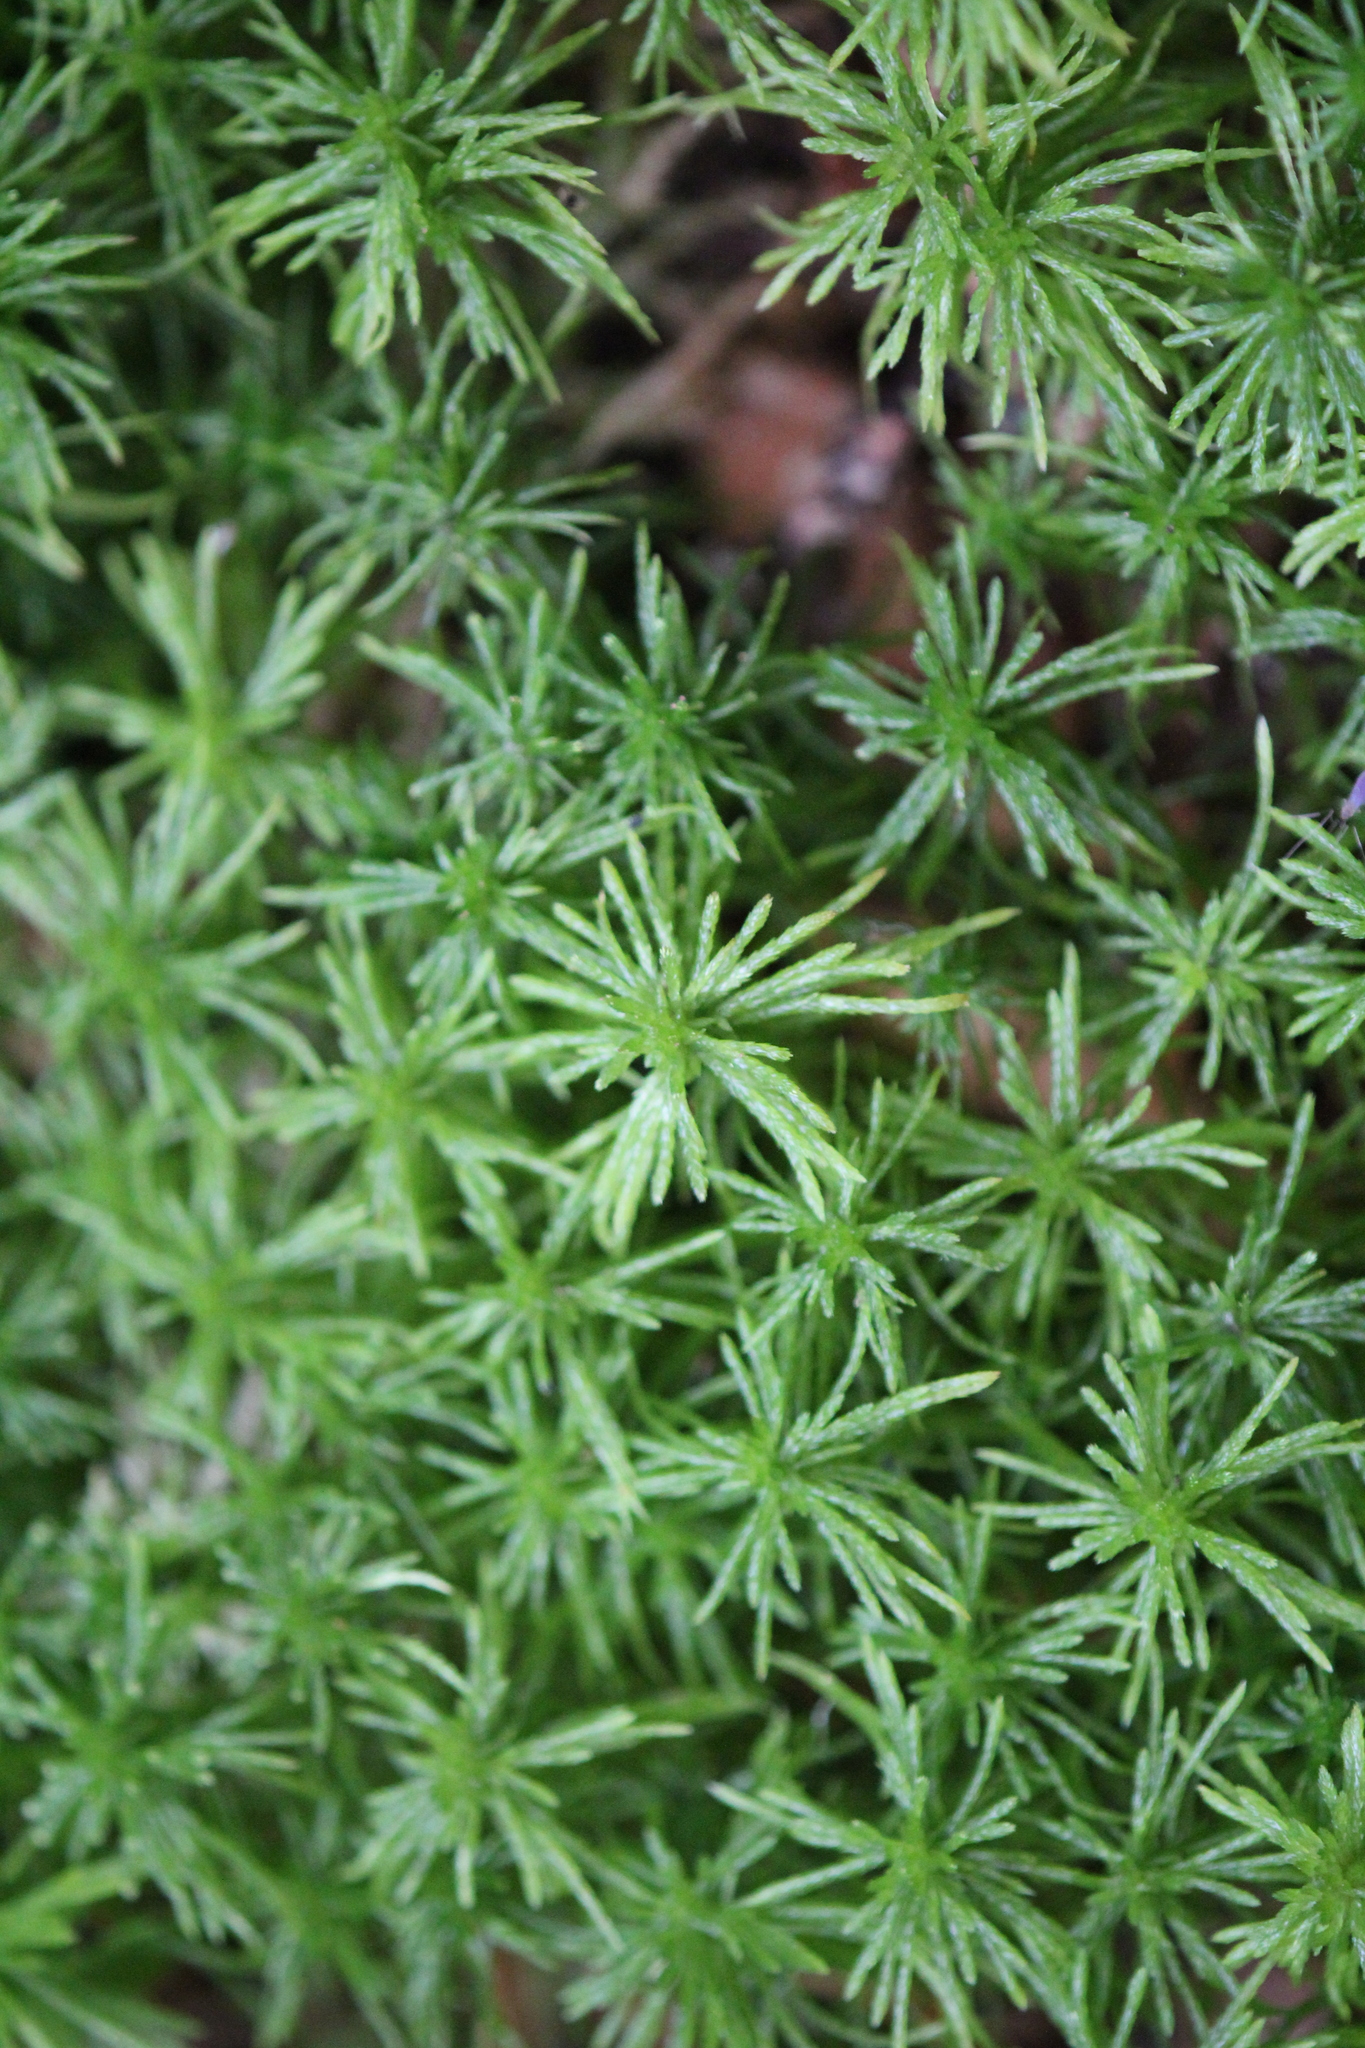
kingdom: Plantae
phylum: Bryophyta
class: Sphagnopsida
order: Sphagnales
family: Sphagnaceae
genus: Sphagnum
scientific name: Sphagnum girgensohnii
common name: Girgensohn's peat moss
